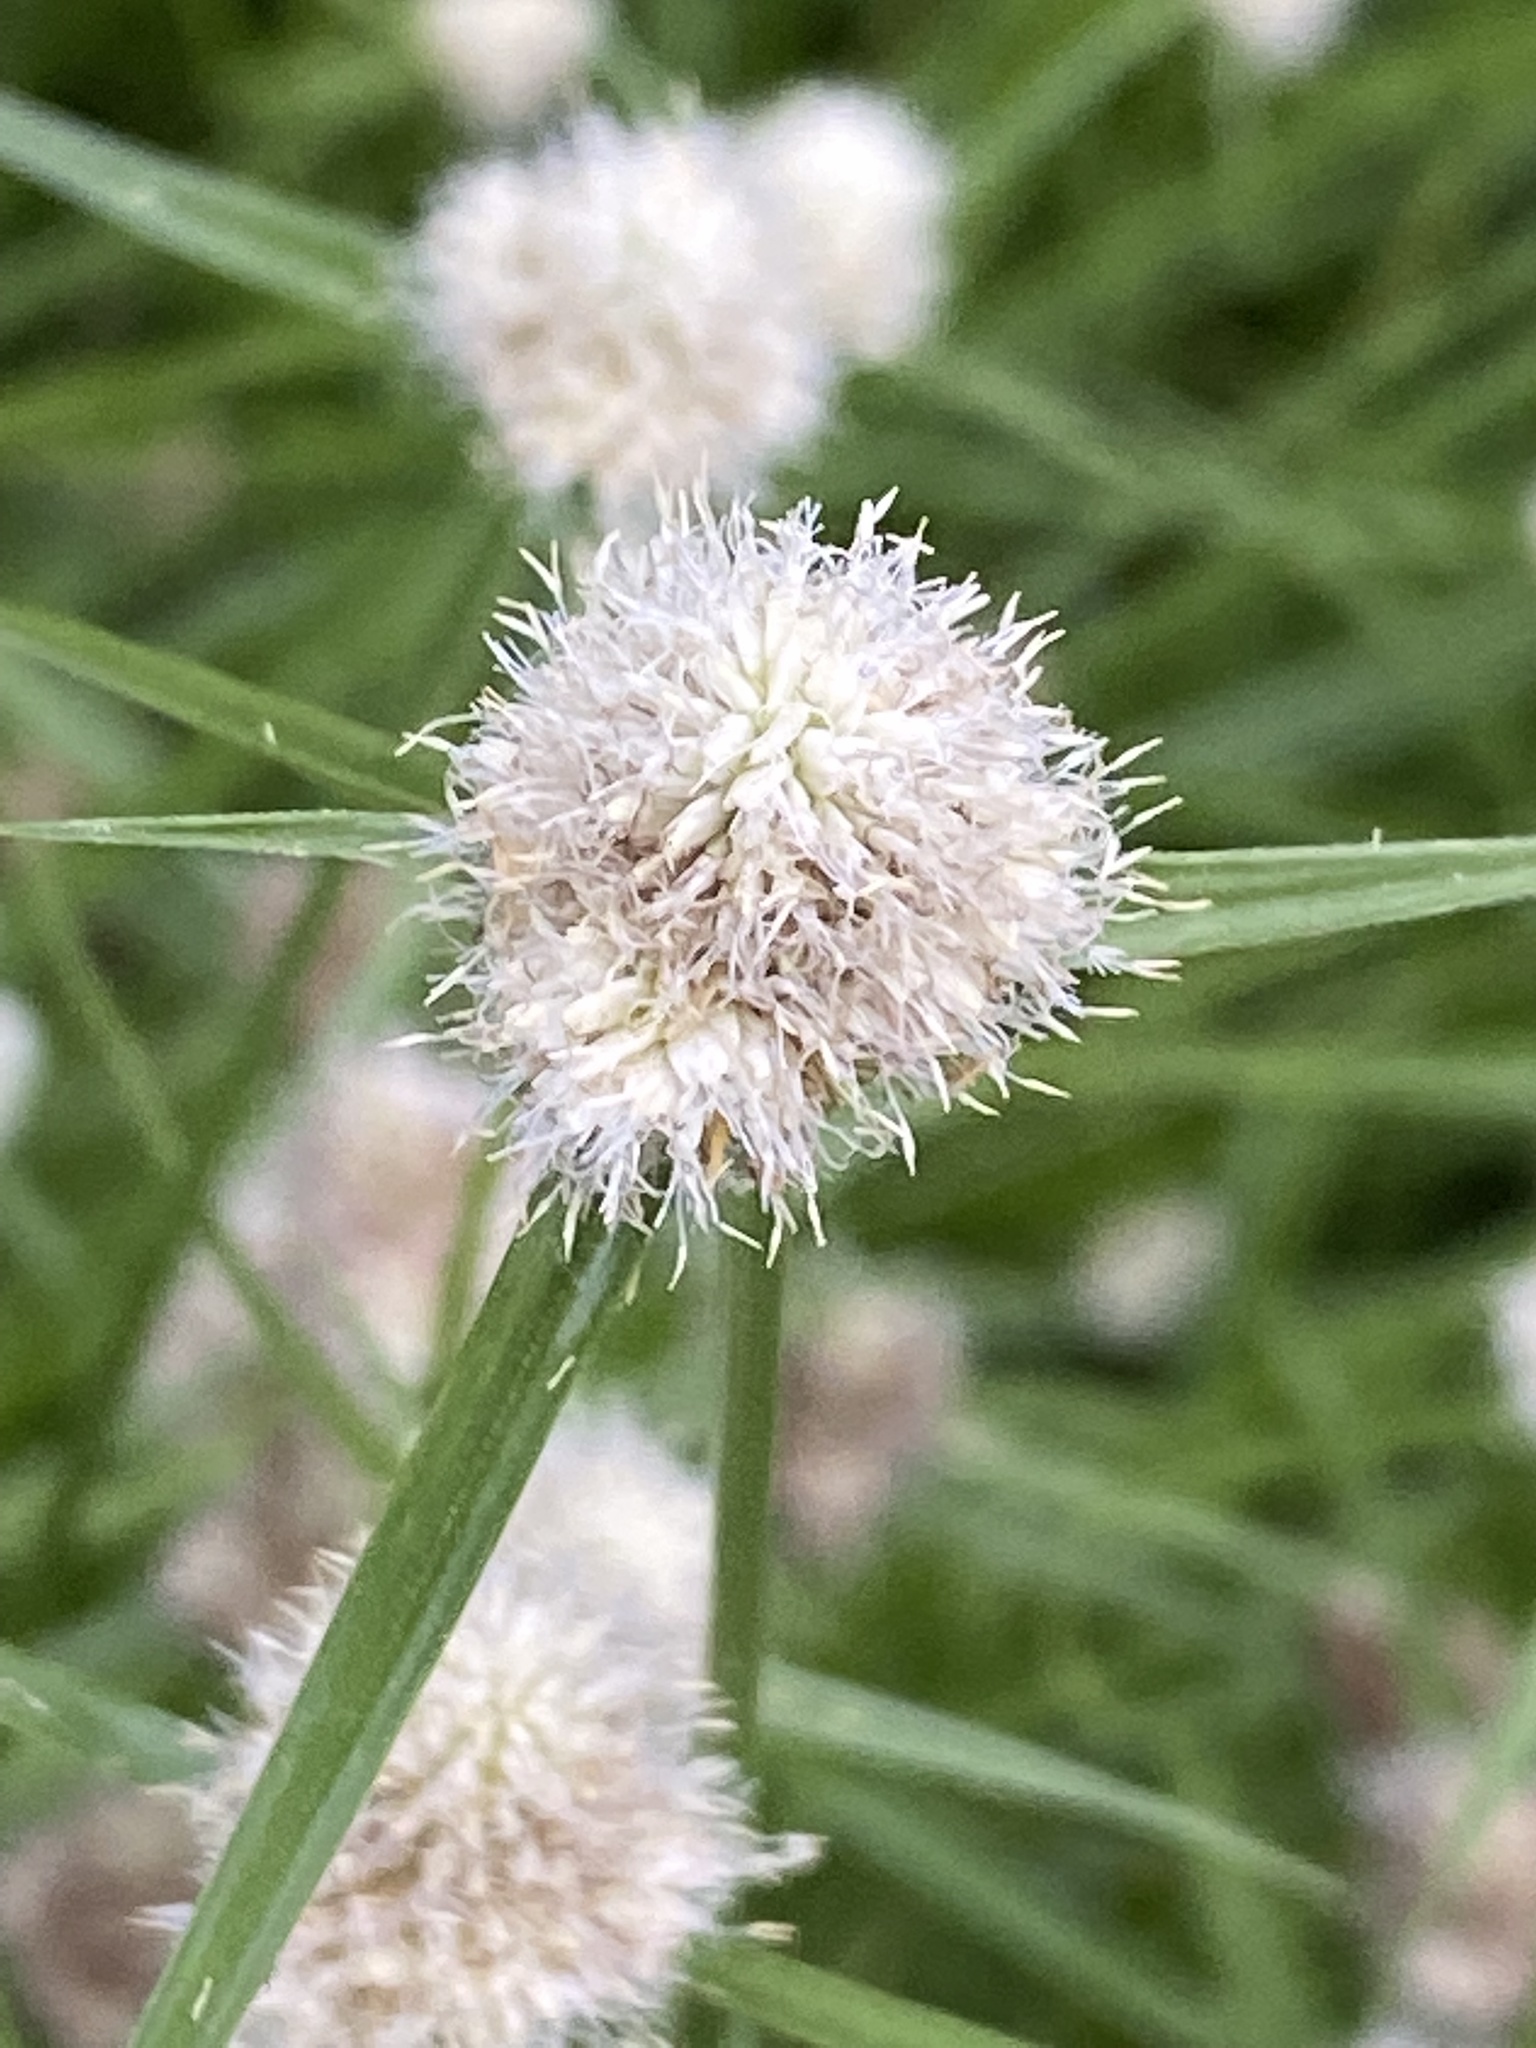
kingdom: Plantae
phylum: Tracheophyta
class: Liliopsida
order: Poales
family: Cyperaceae
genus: Cyperus
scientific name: Cyperus sesquiflorus
